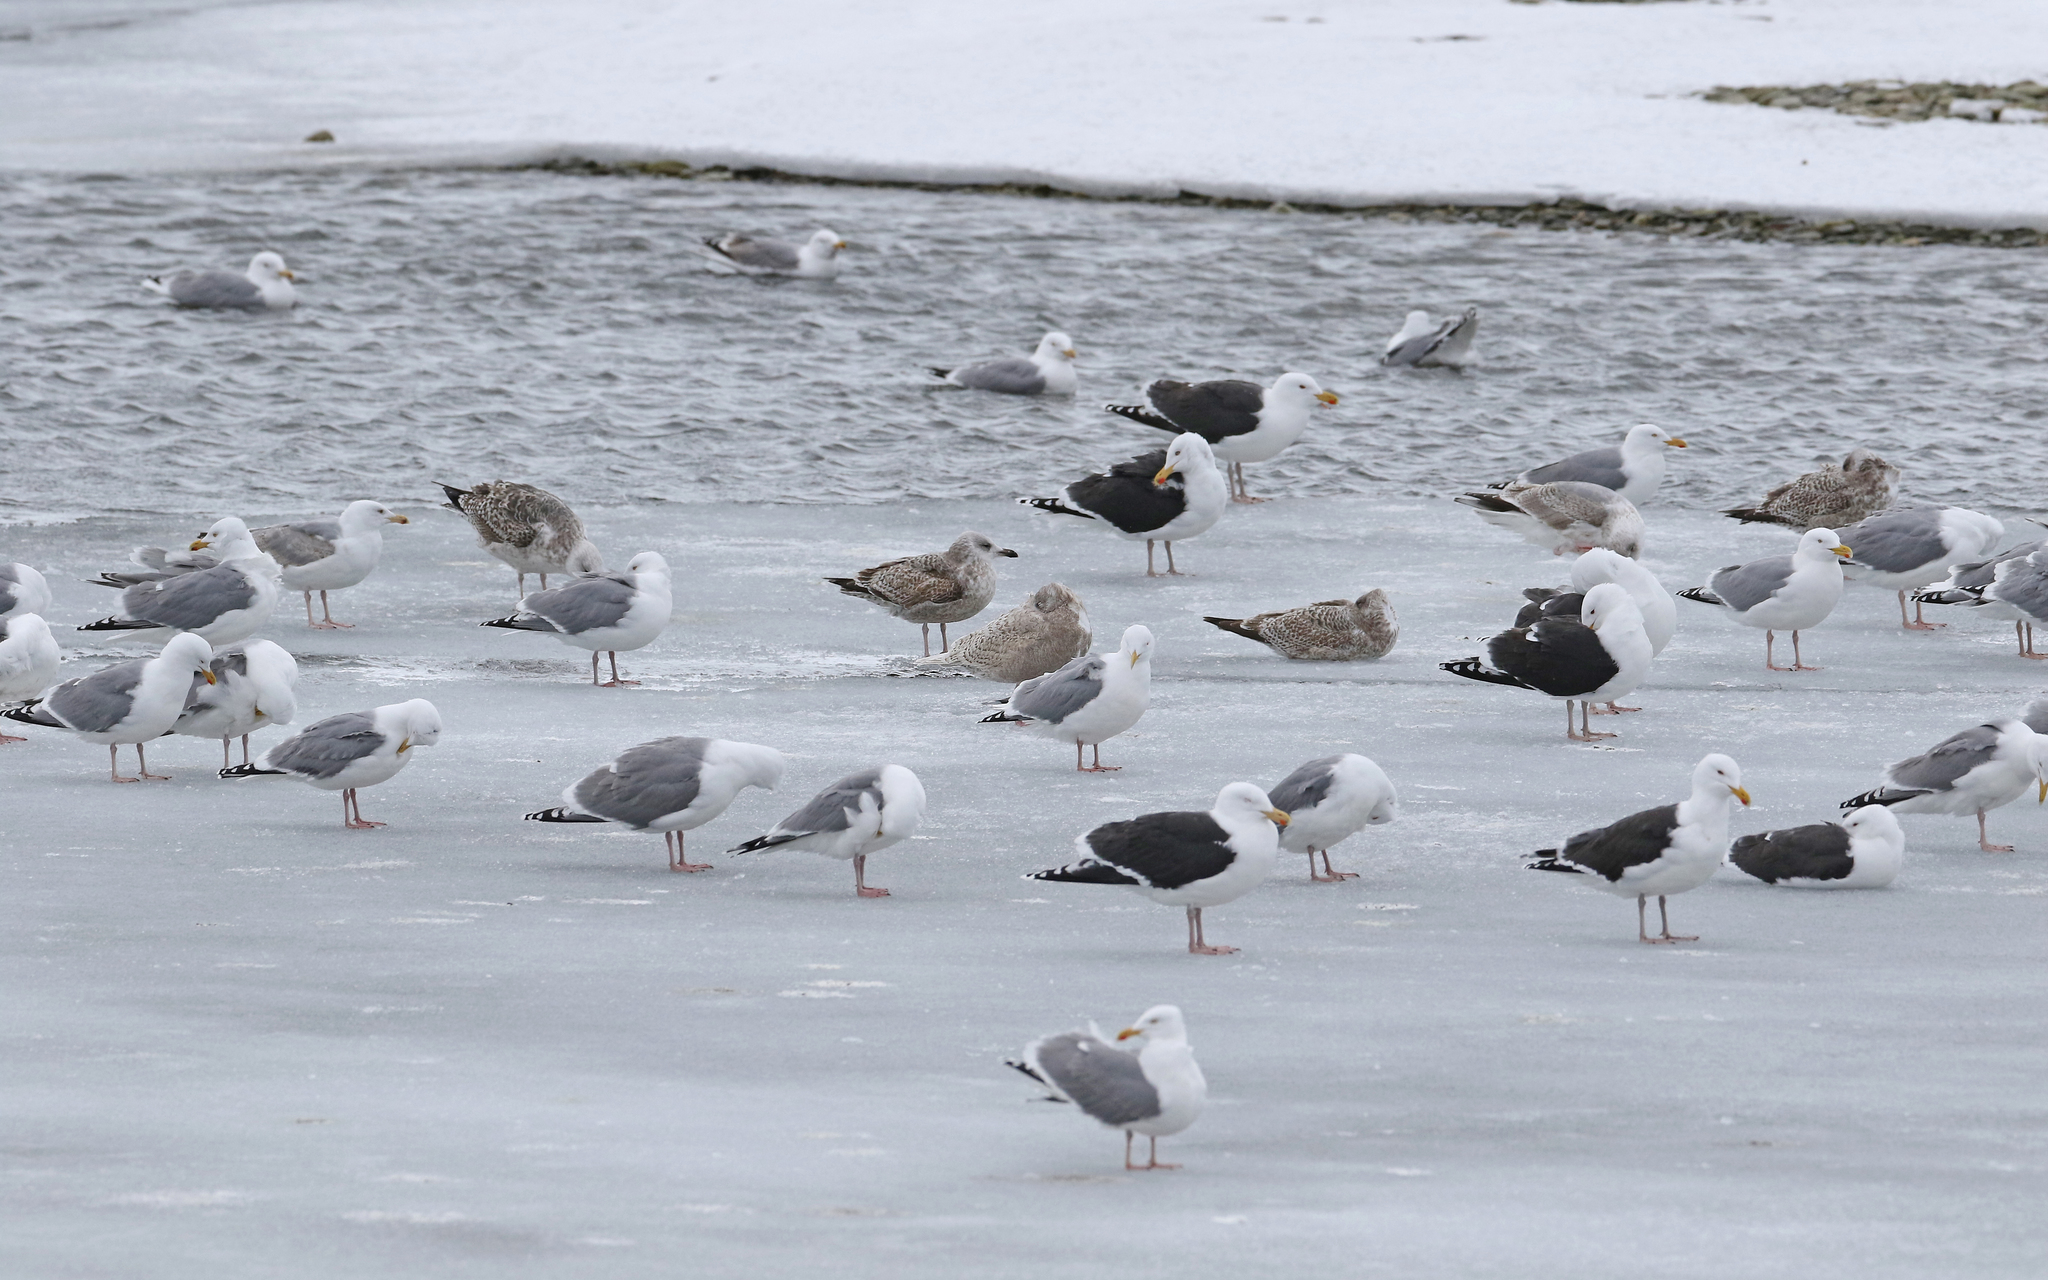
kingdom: Animalia
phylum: Chordata
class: Aves
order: Charadriiformes
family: Laridae
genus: Larus
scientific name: Larus hyperboreus
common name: Glaucous gull
